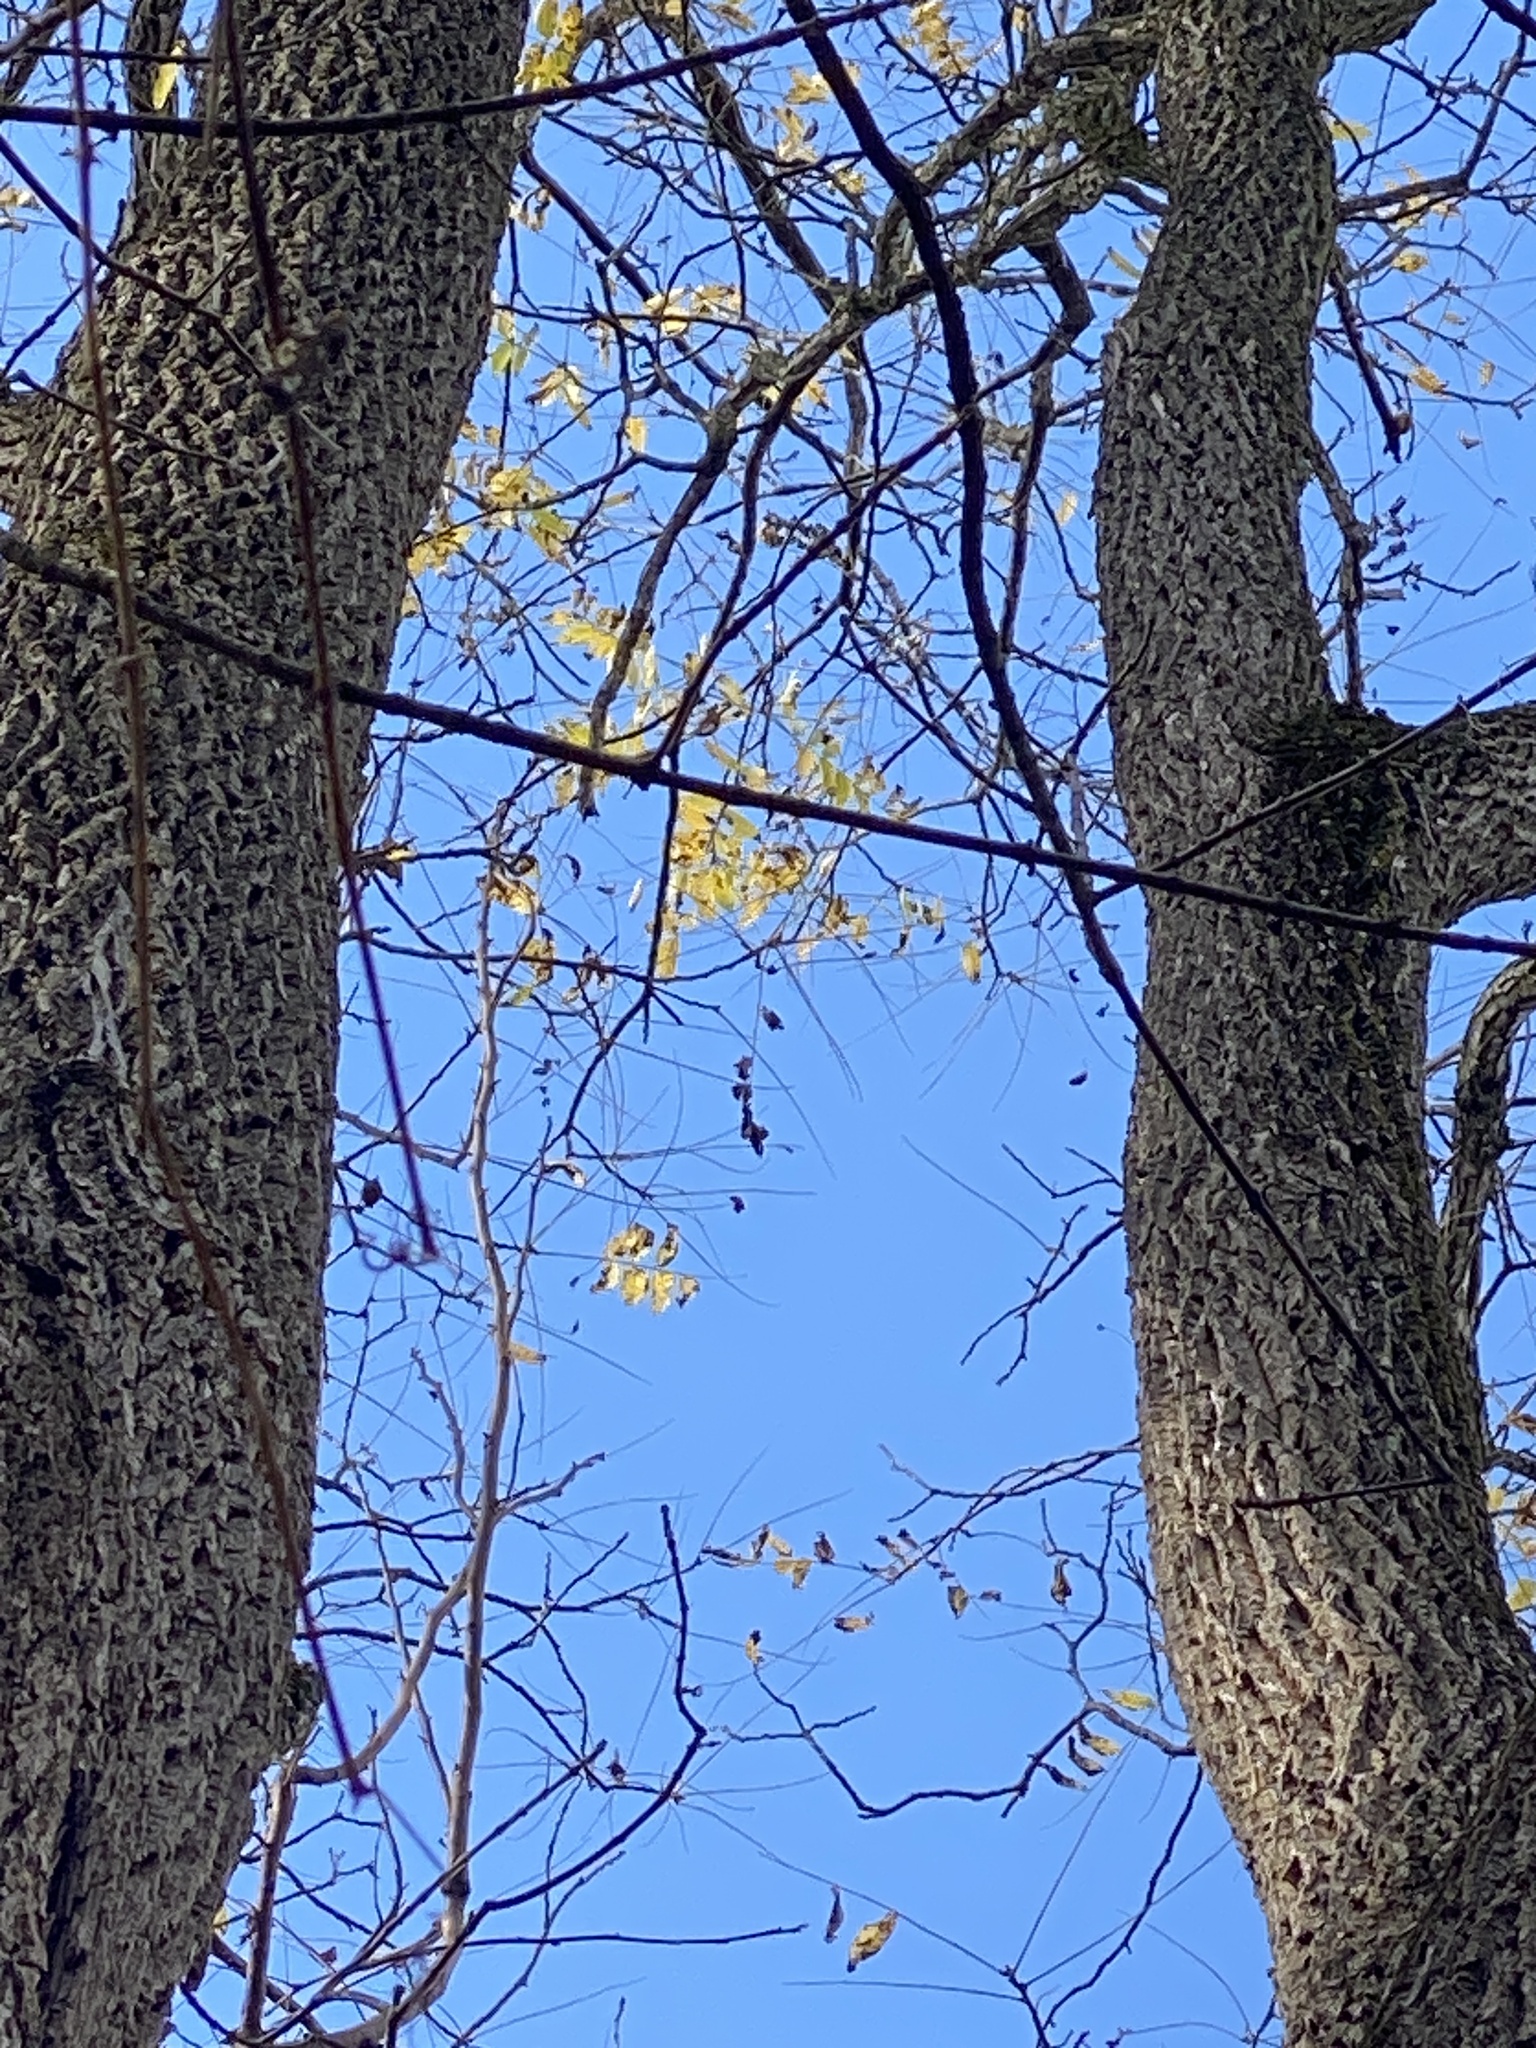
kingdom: Plantae
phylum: Tracheophyta
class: Magnoliopsida
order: Fagales
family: Juglandaceae
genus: Juglans
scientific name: Juglans nigra
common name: Black walnut
